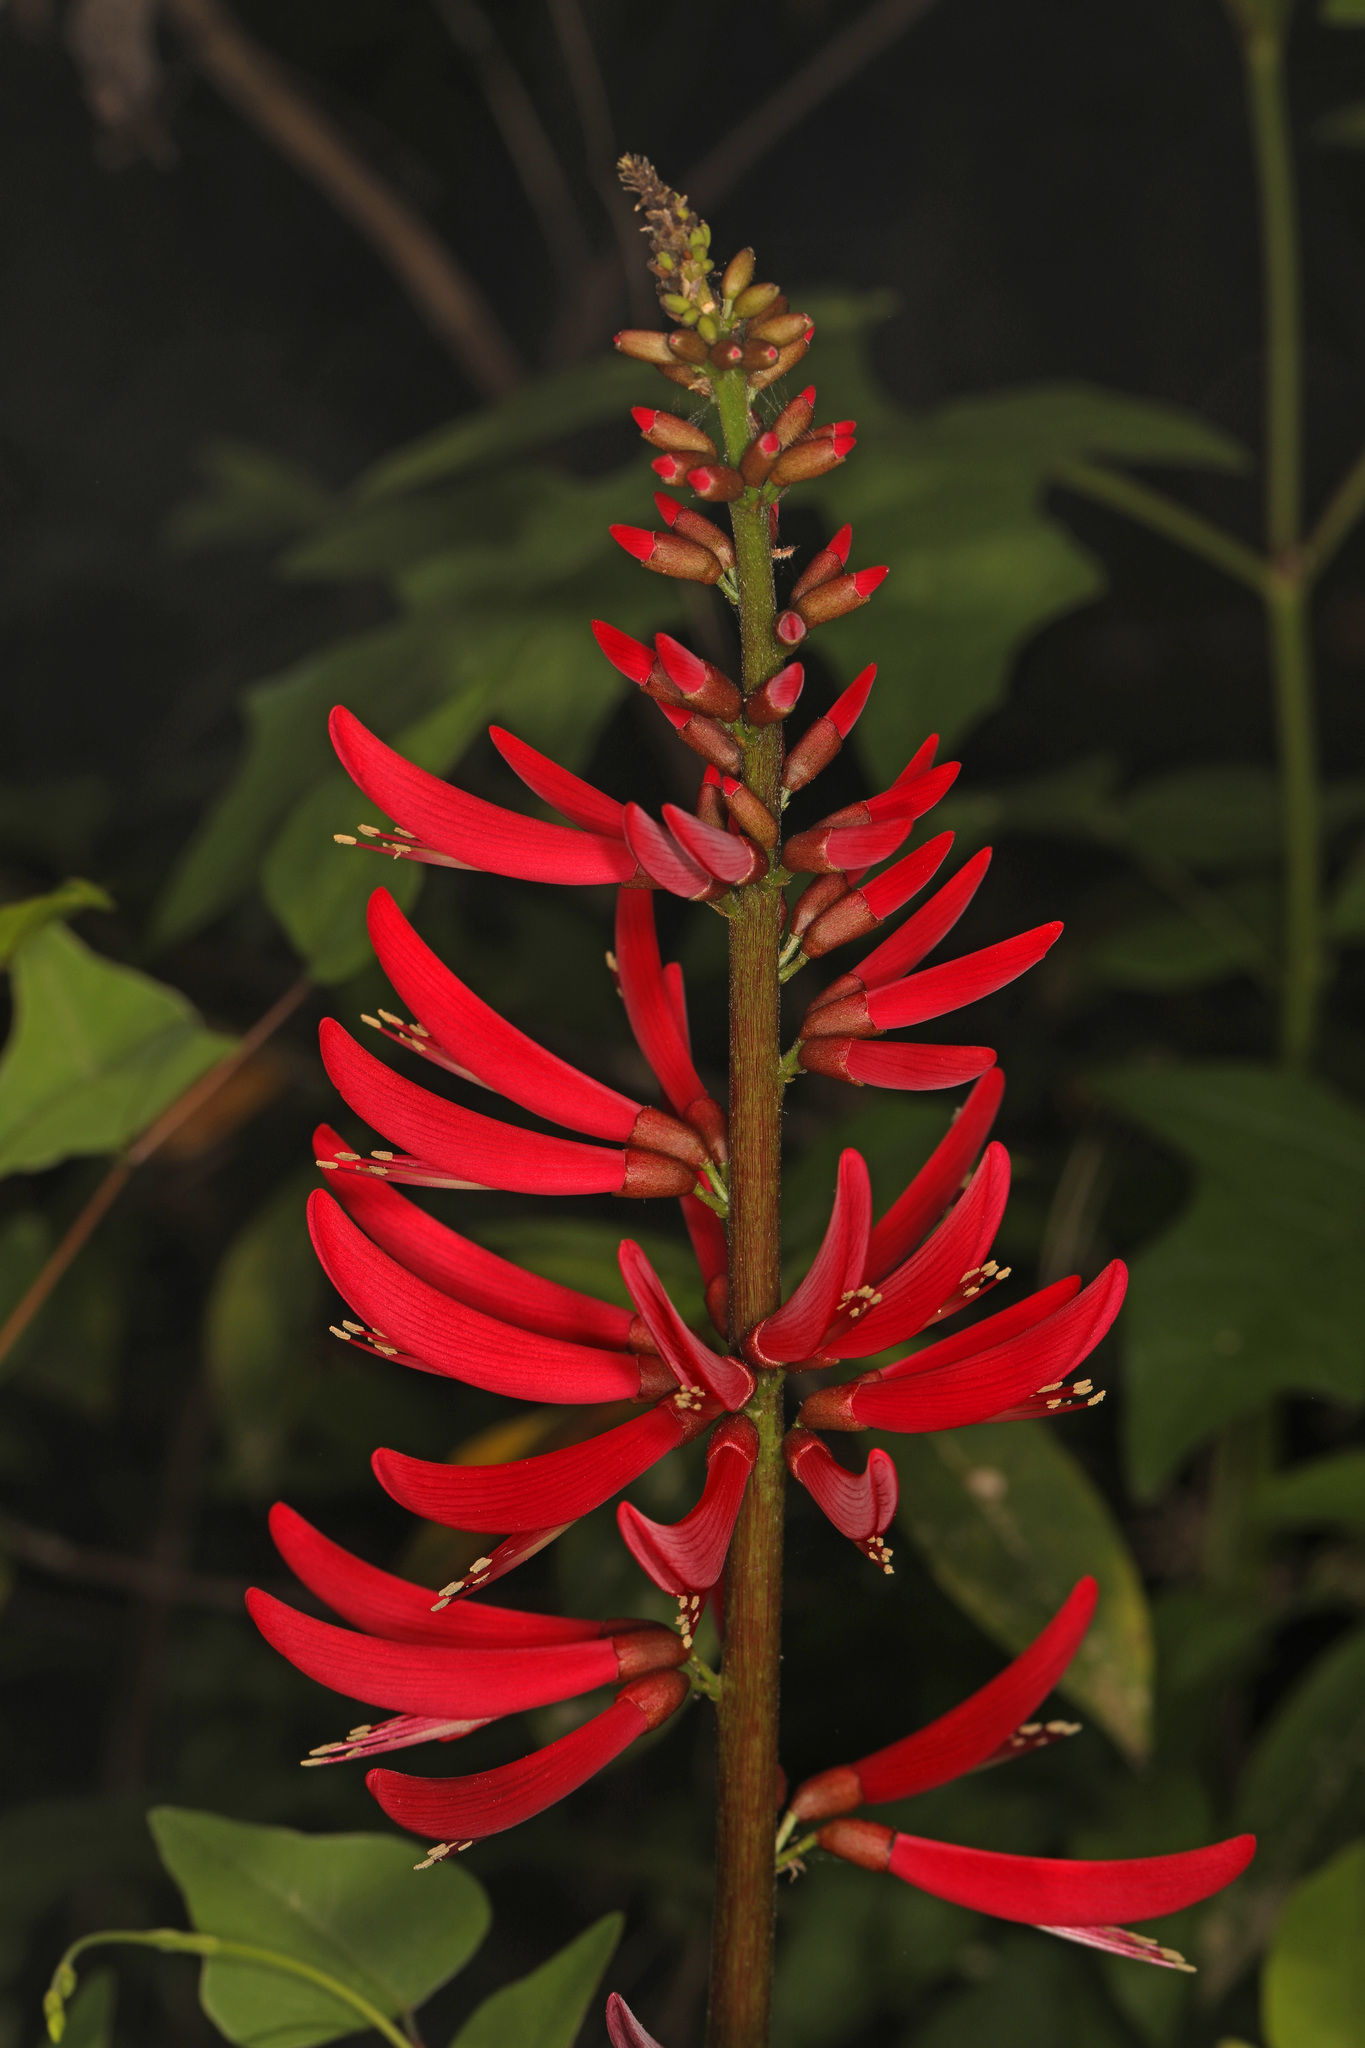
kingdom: Plantae
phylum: Tracheophyta
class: Magnoliopsida
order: Fabales
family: Fabaceae
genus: Erythrina
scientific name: Erythrina herbacea
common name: Coral-bean
